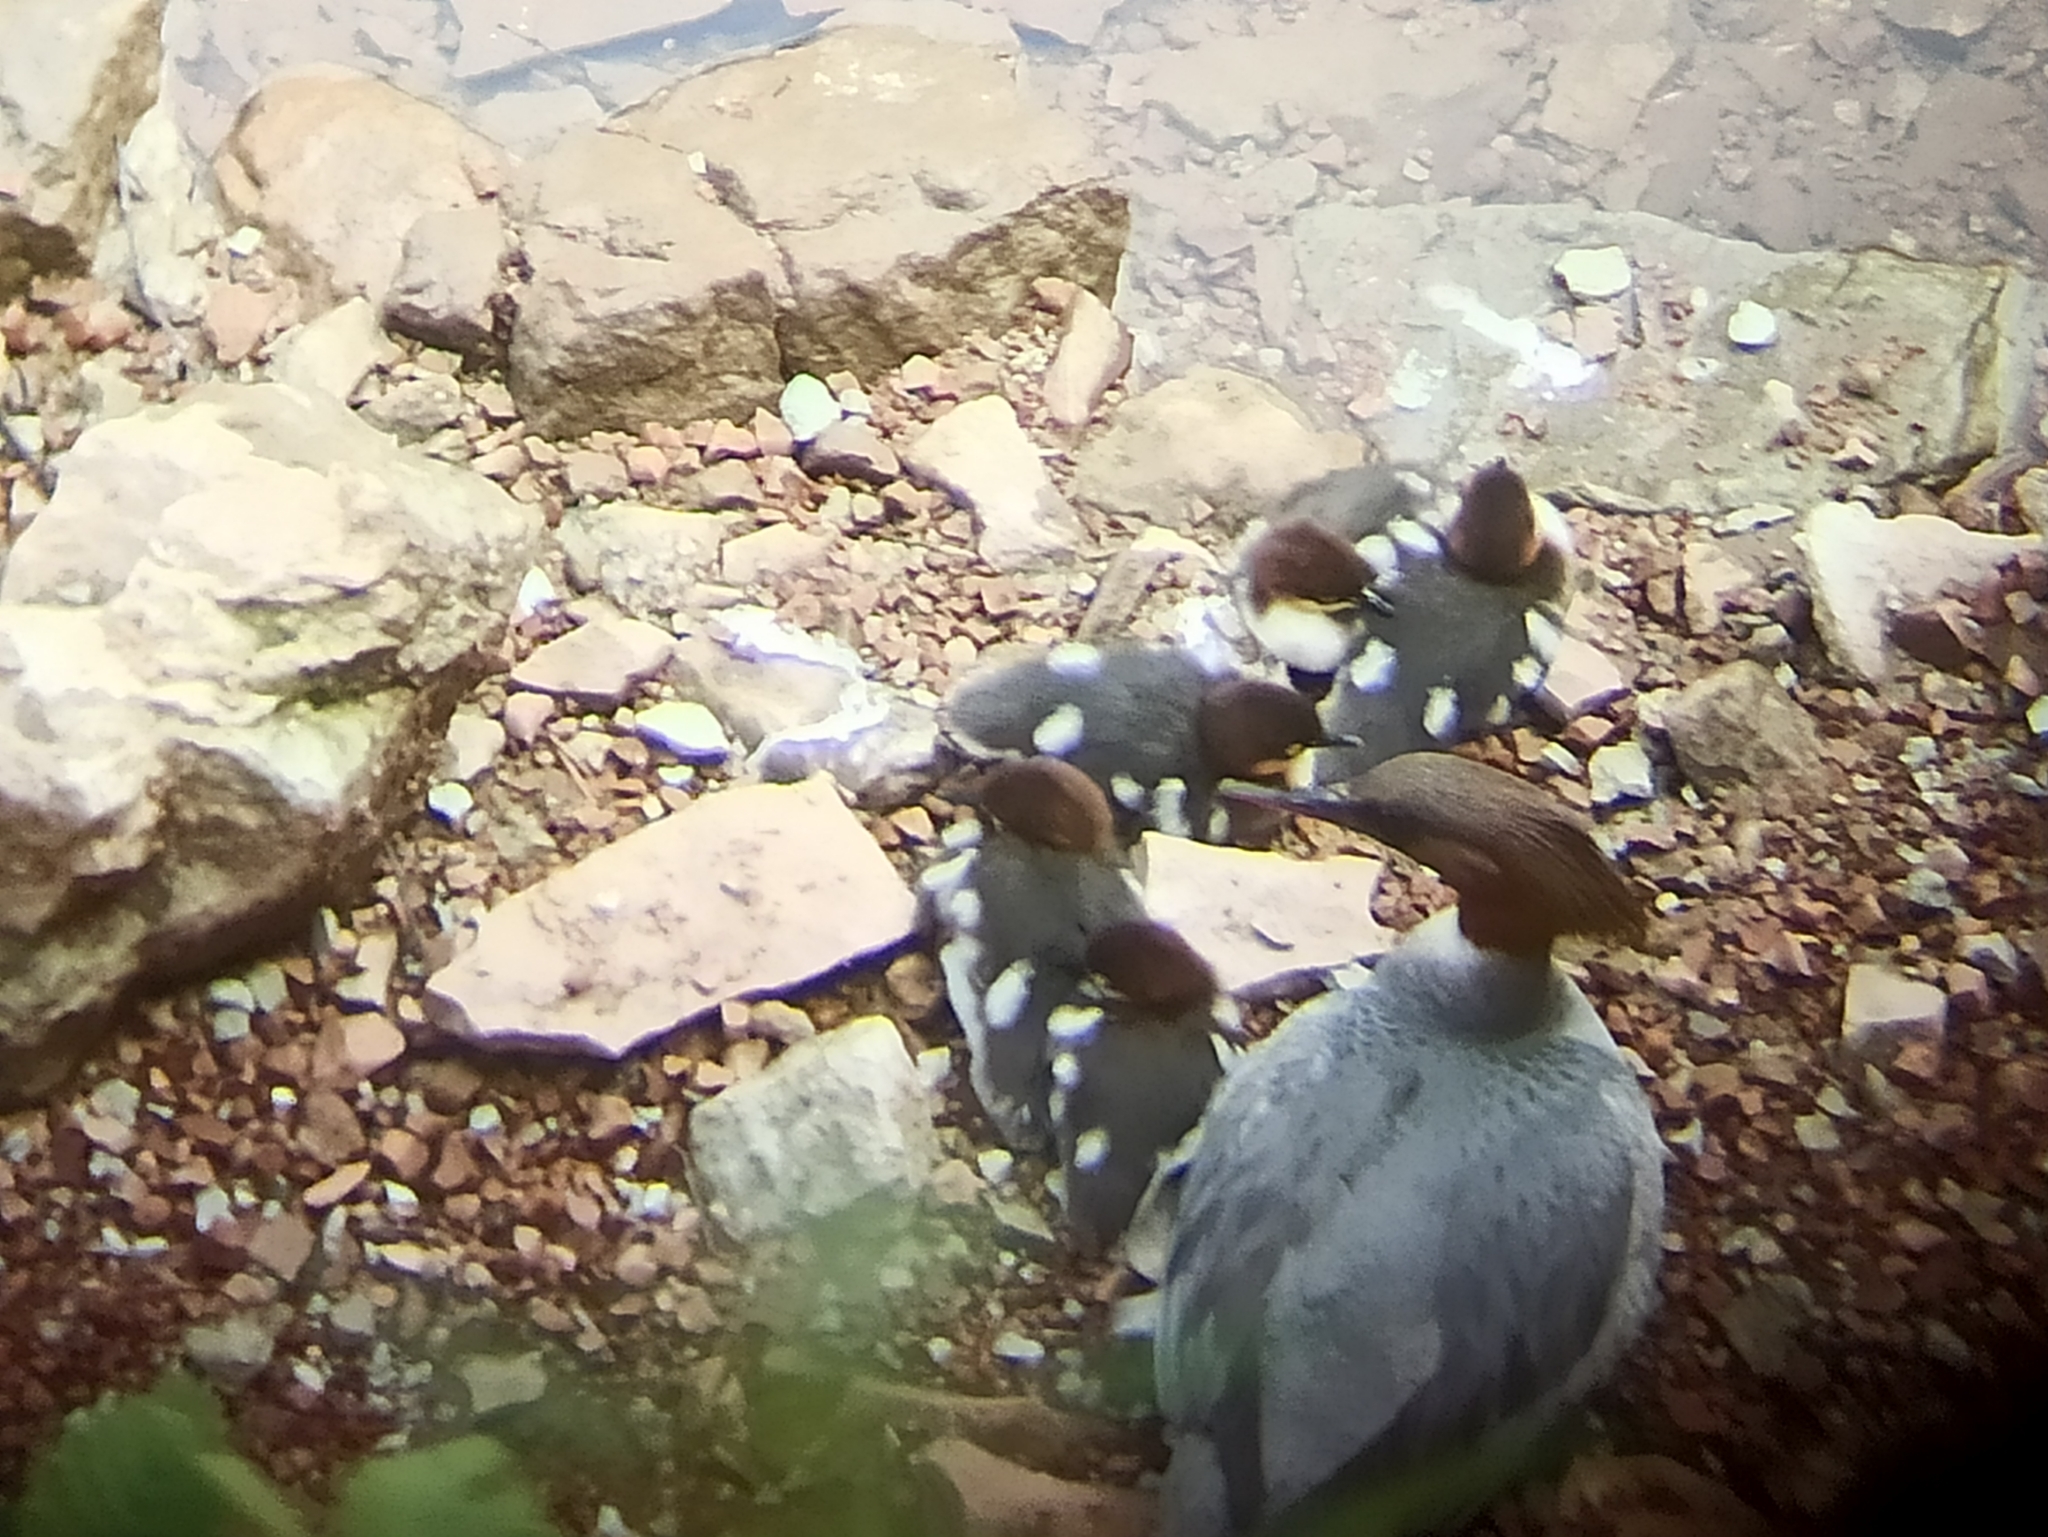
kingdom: Animalia
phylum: Chordata
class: Aves
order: Anseriformes
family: Anatidae
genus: Mergus
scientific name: Mergus merganser
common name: Common merganser
